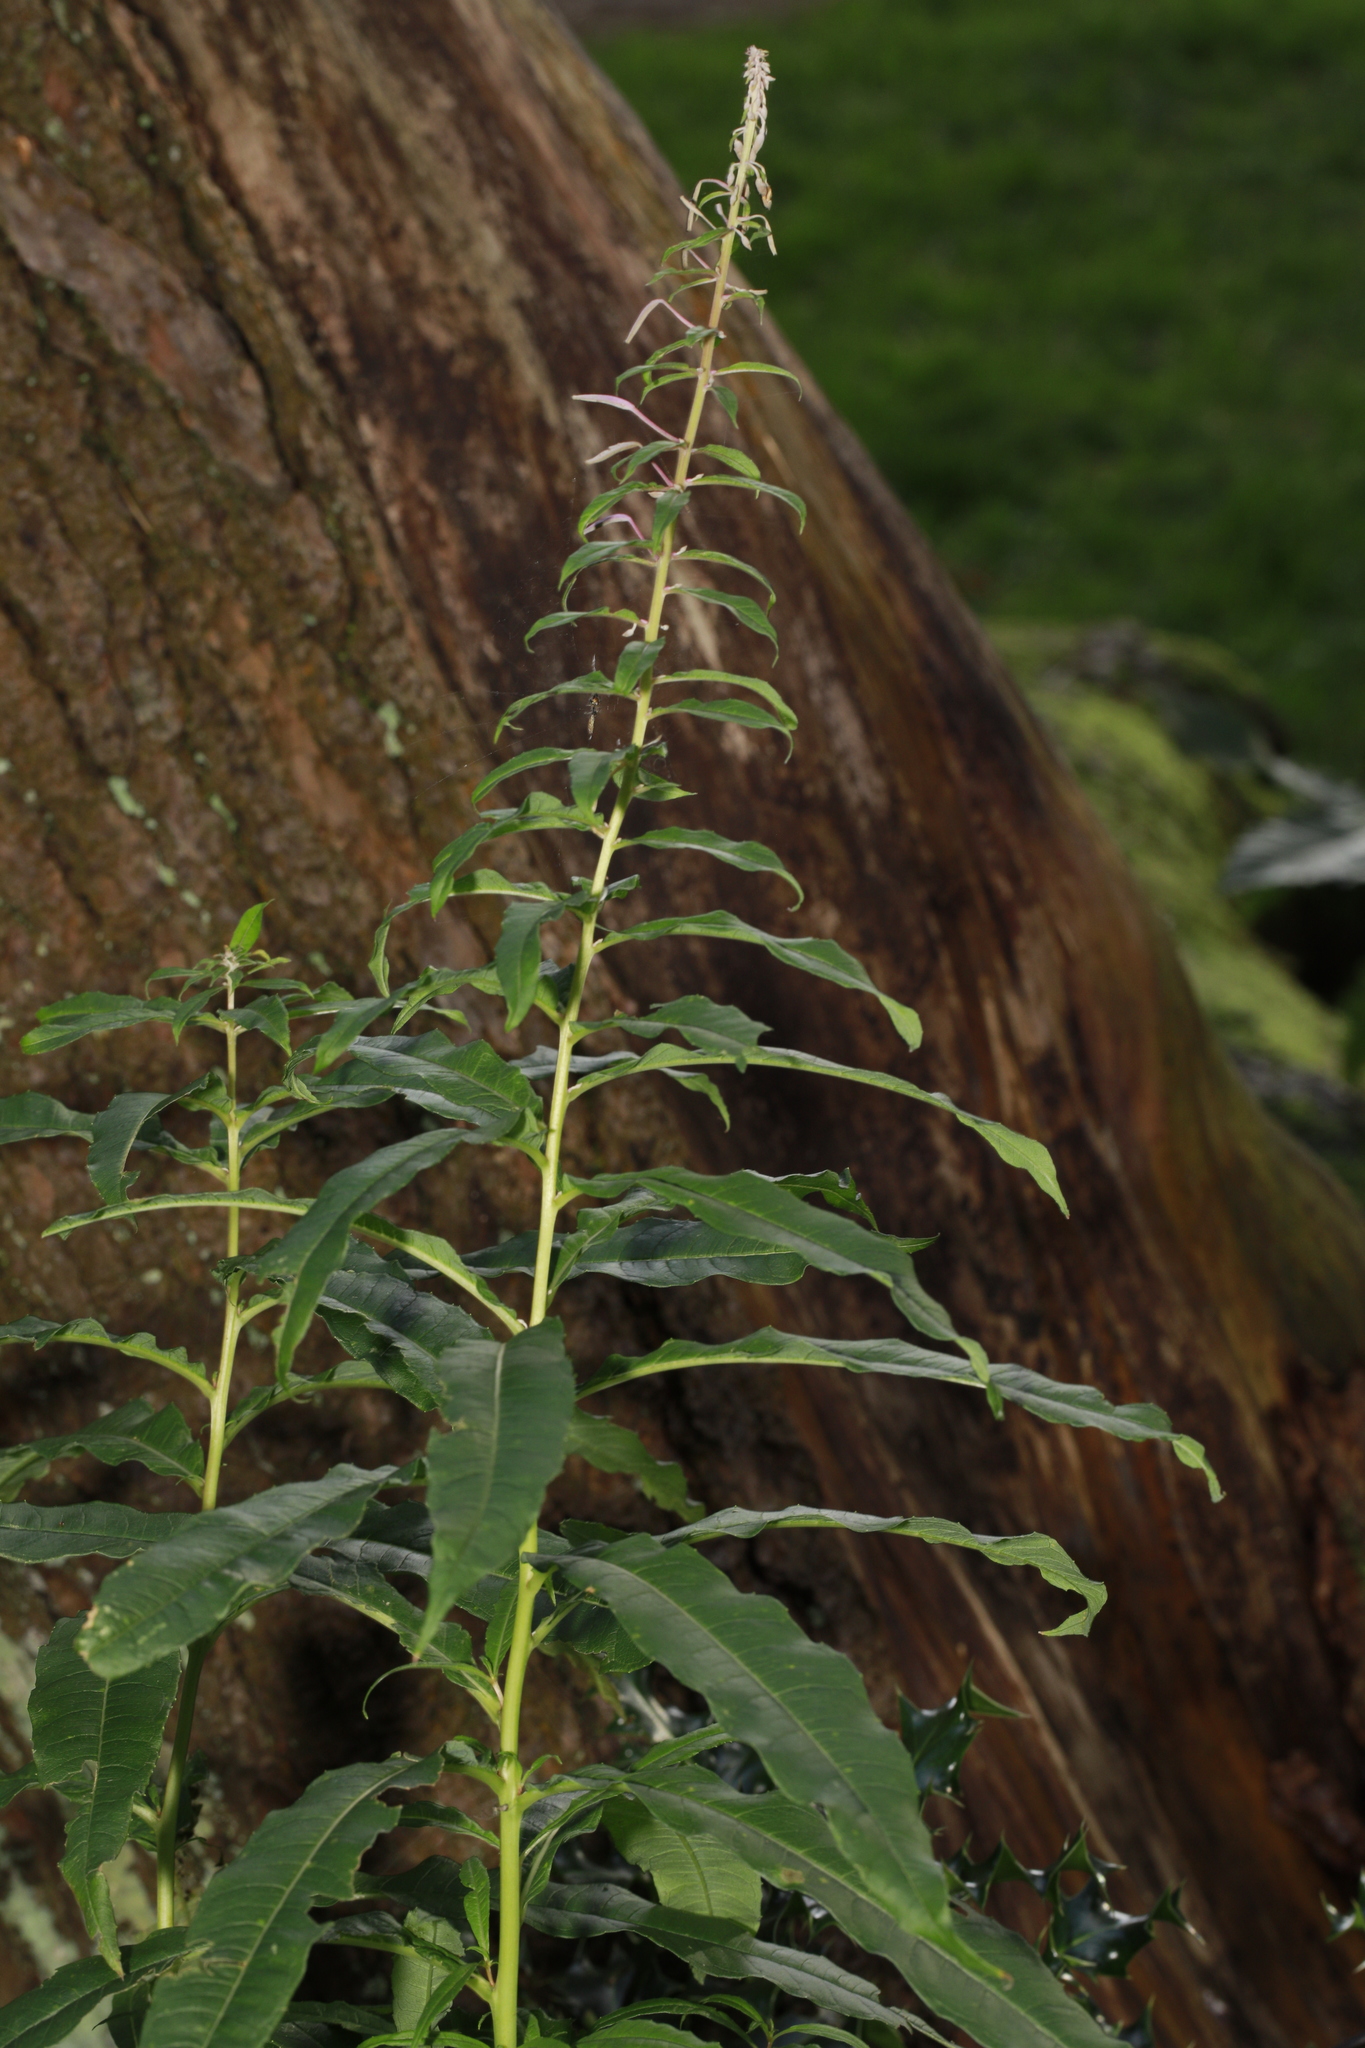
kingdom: Plantae
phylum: Tracheophyta
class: Magnoliopsida
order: Myrtales
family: Onagraceae
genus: Chamaenerion
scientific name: Chamaenerion angustifolium
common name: Fireweed
